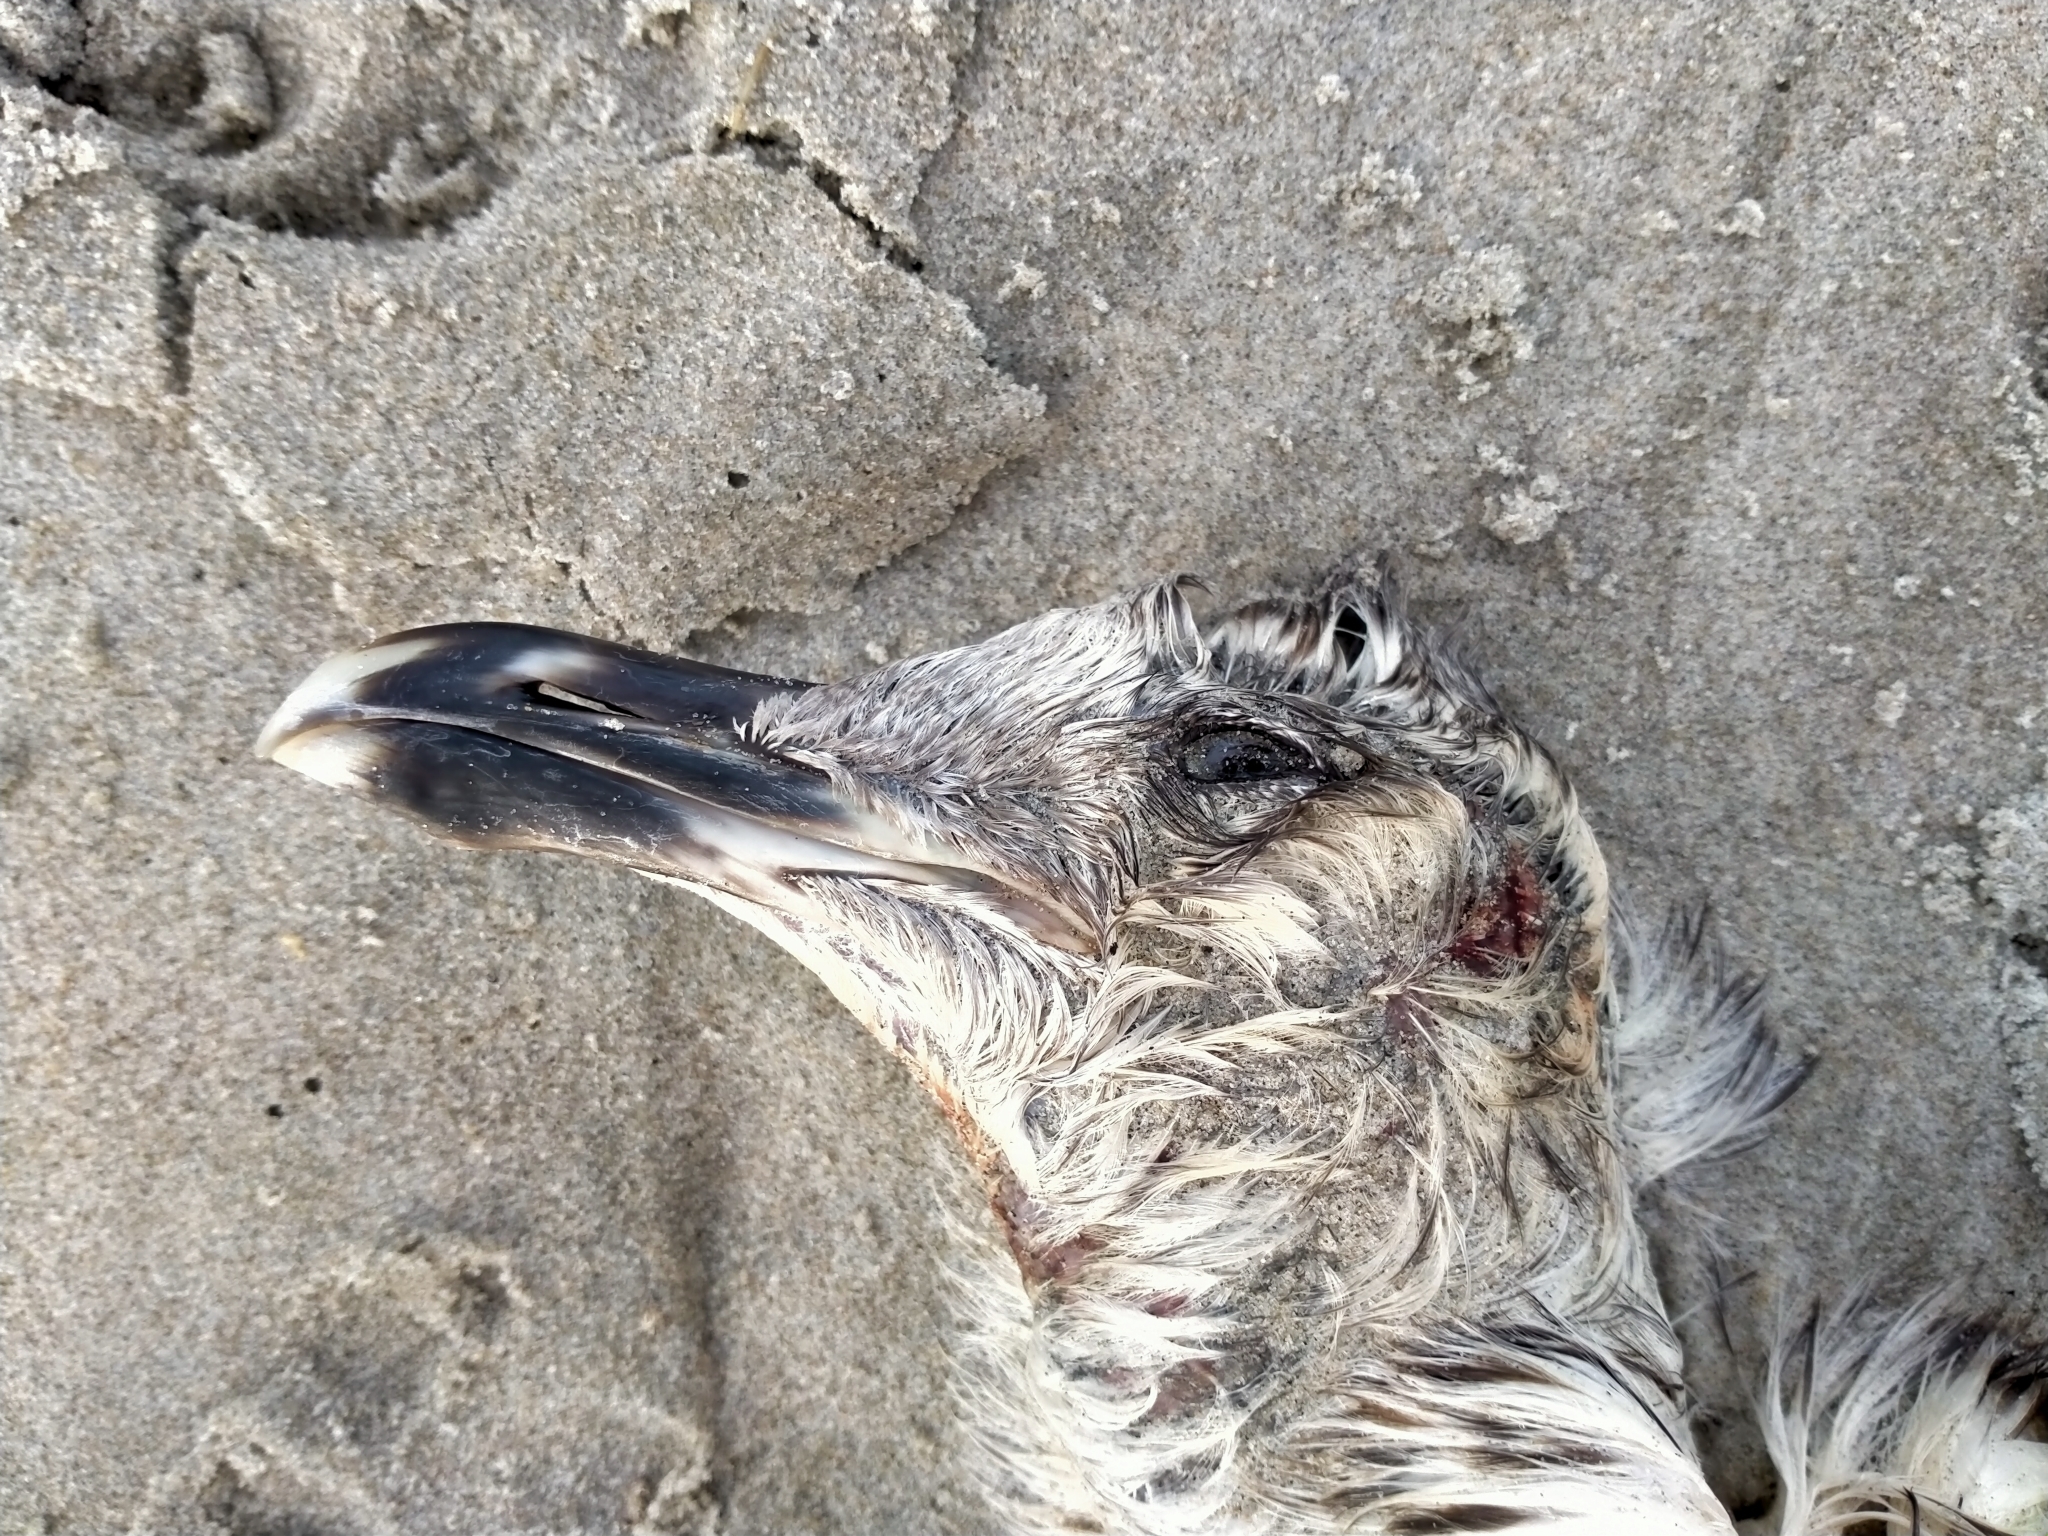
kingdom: Animalia
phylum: Chordata
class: Aves
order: Charadriiformes
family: Laridae
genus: Larus
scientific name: Larus dominicanus
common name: Kelp gull
